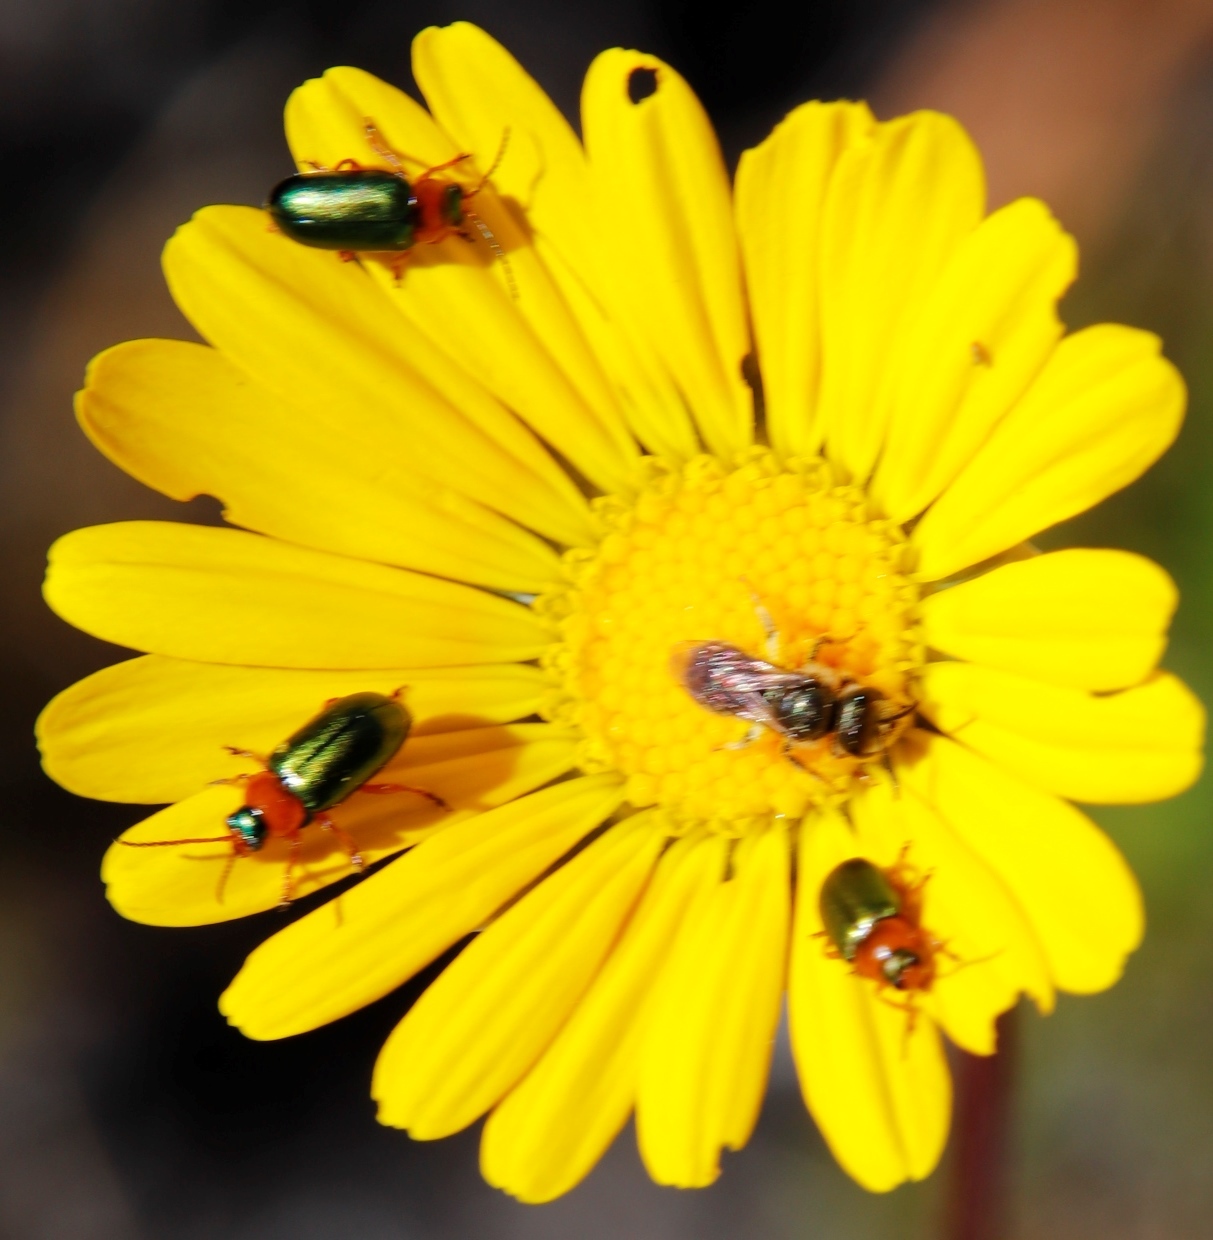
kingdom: Animalia
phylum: Arthropoda
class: Insecta
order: Coleoptera
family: Chrysomelidae
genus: Palaeophylia
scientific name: Palaeophylia
